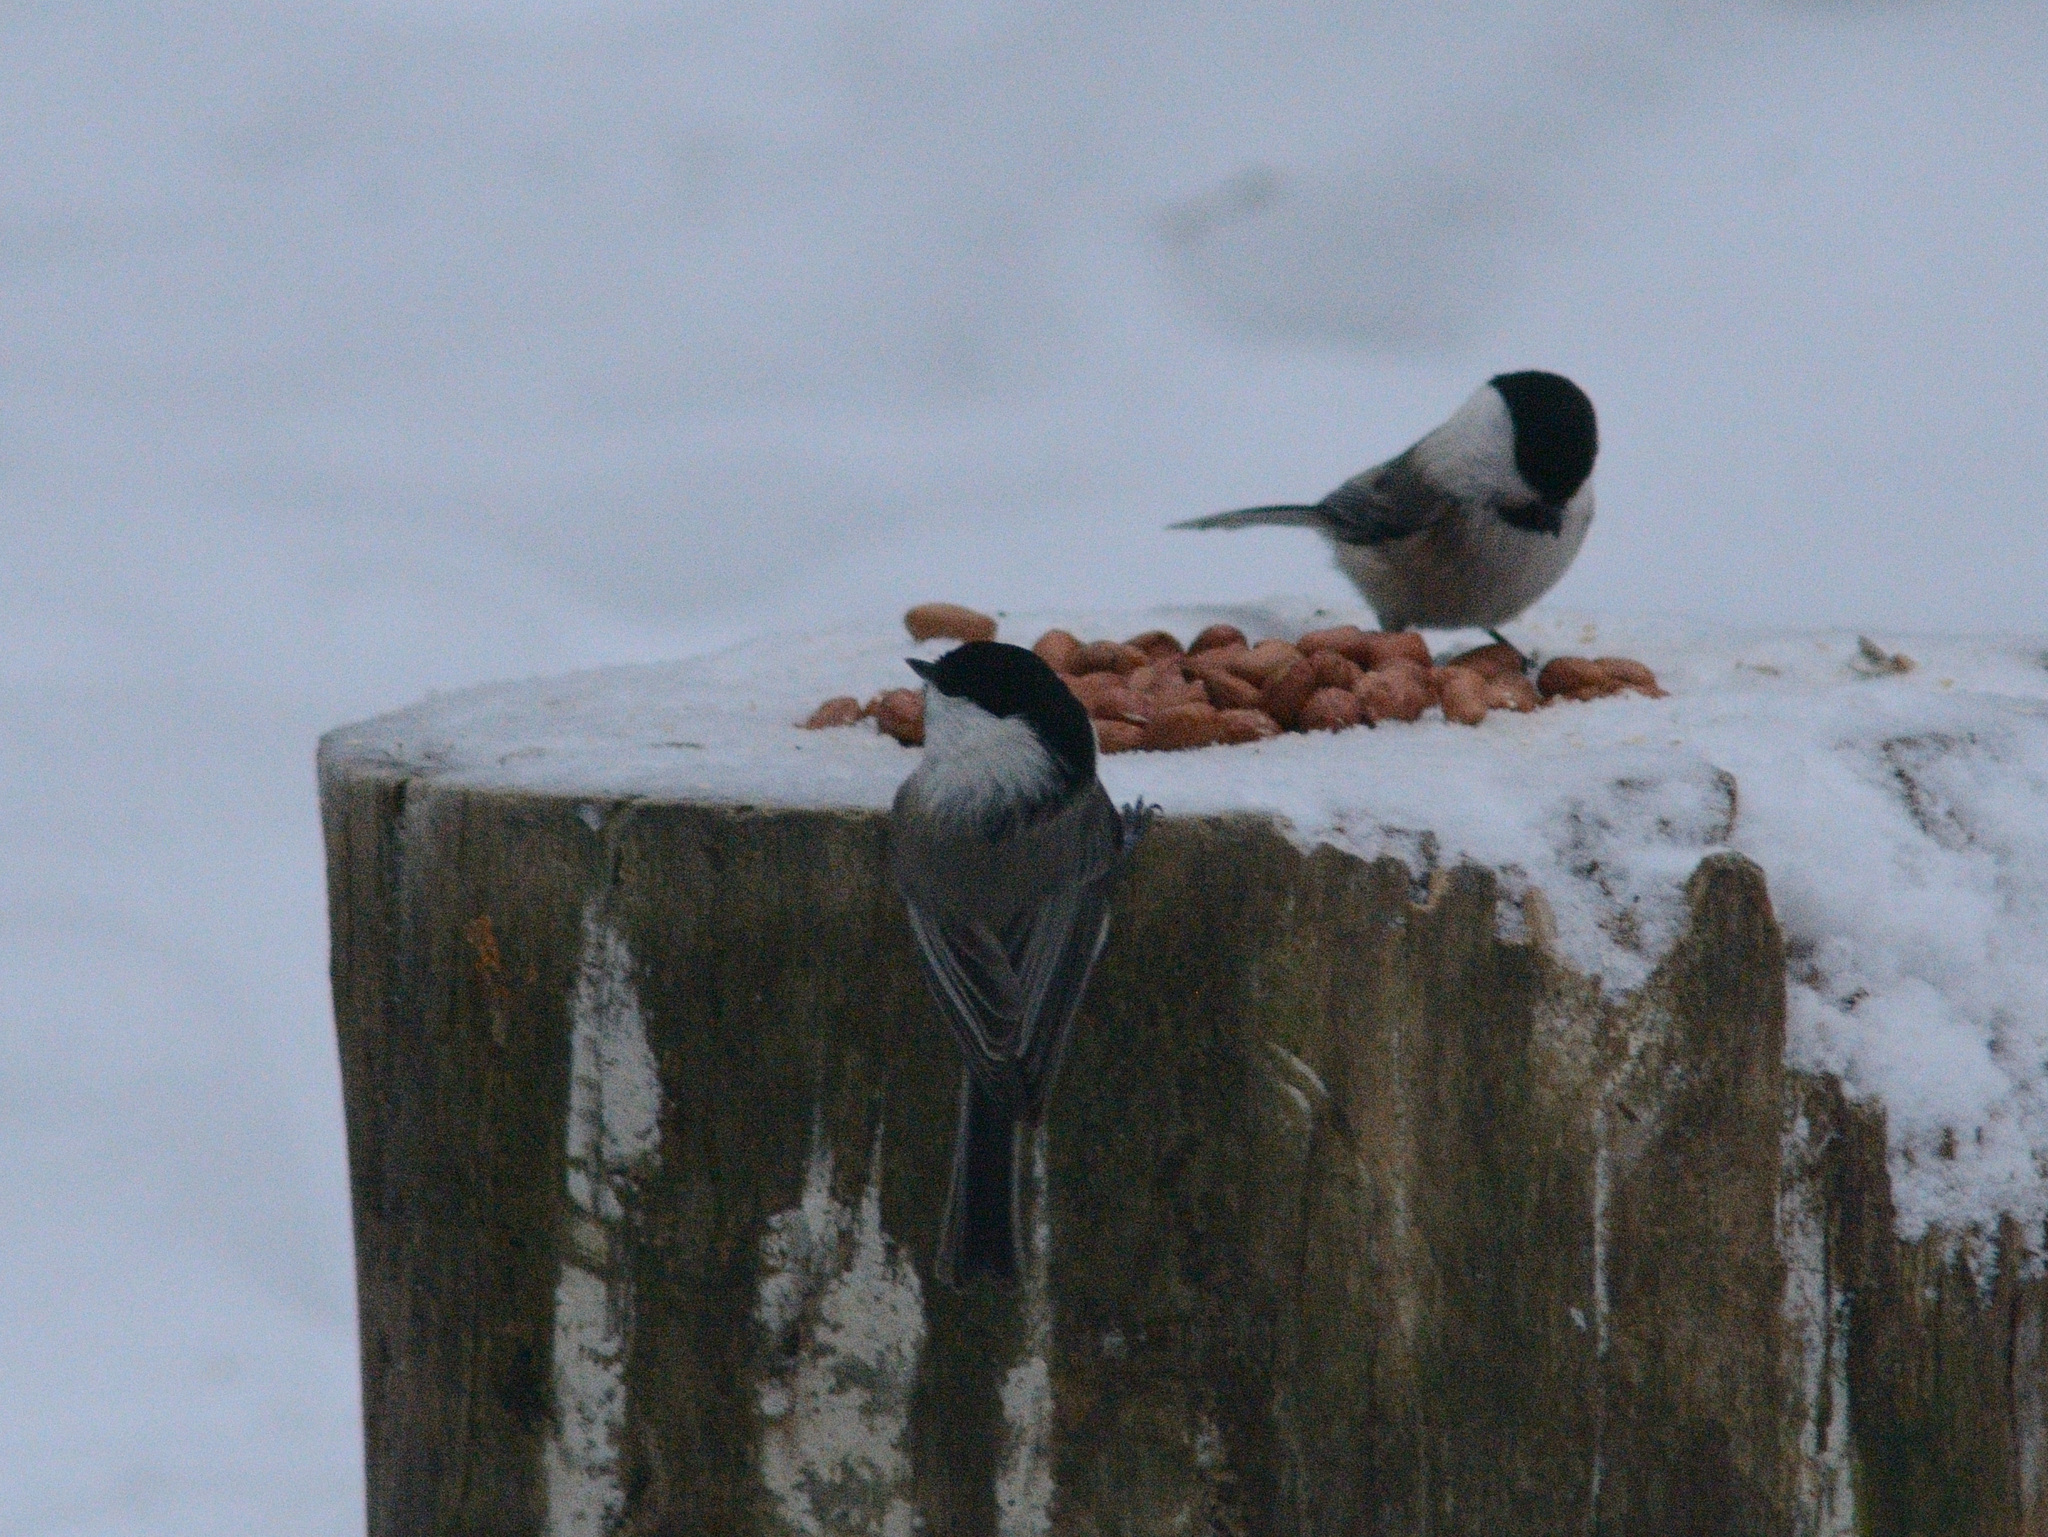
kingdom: Animalia
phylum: Chordata
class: Aves
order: Passeriformes
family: Paridae
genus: Poecile
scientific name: Poecile montanus
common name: Willow tit
